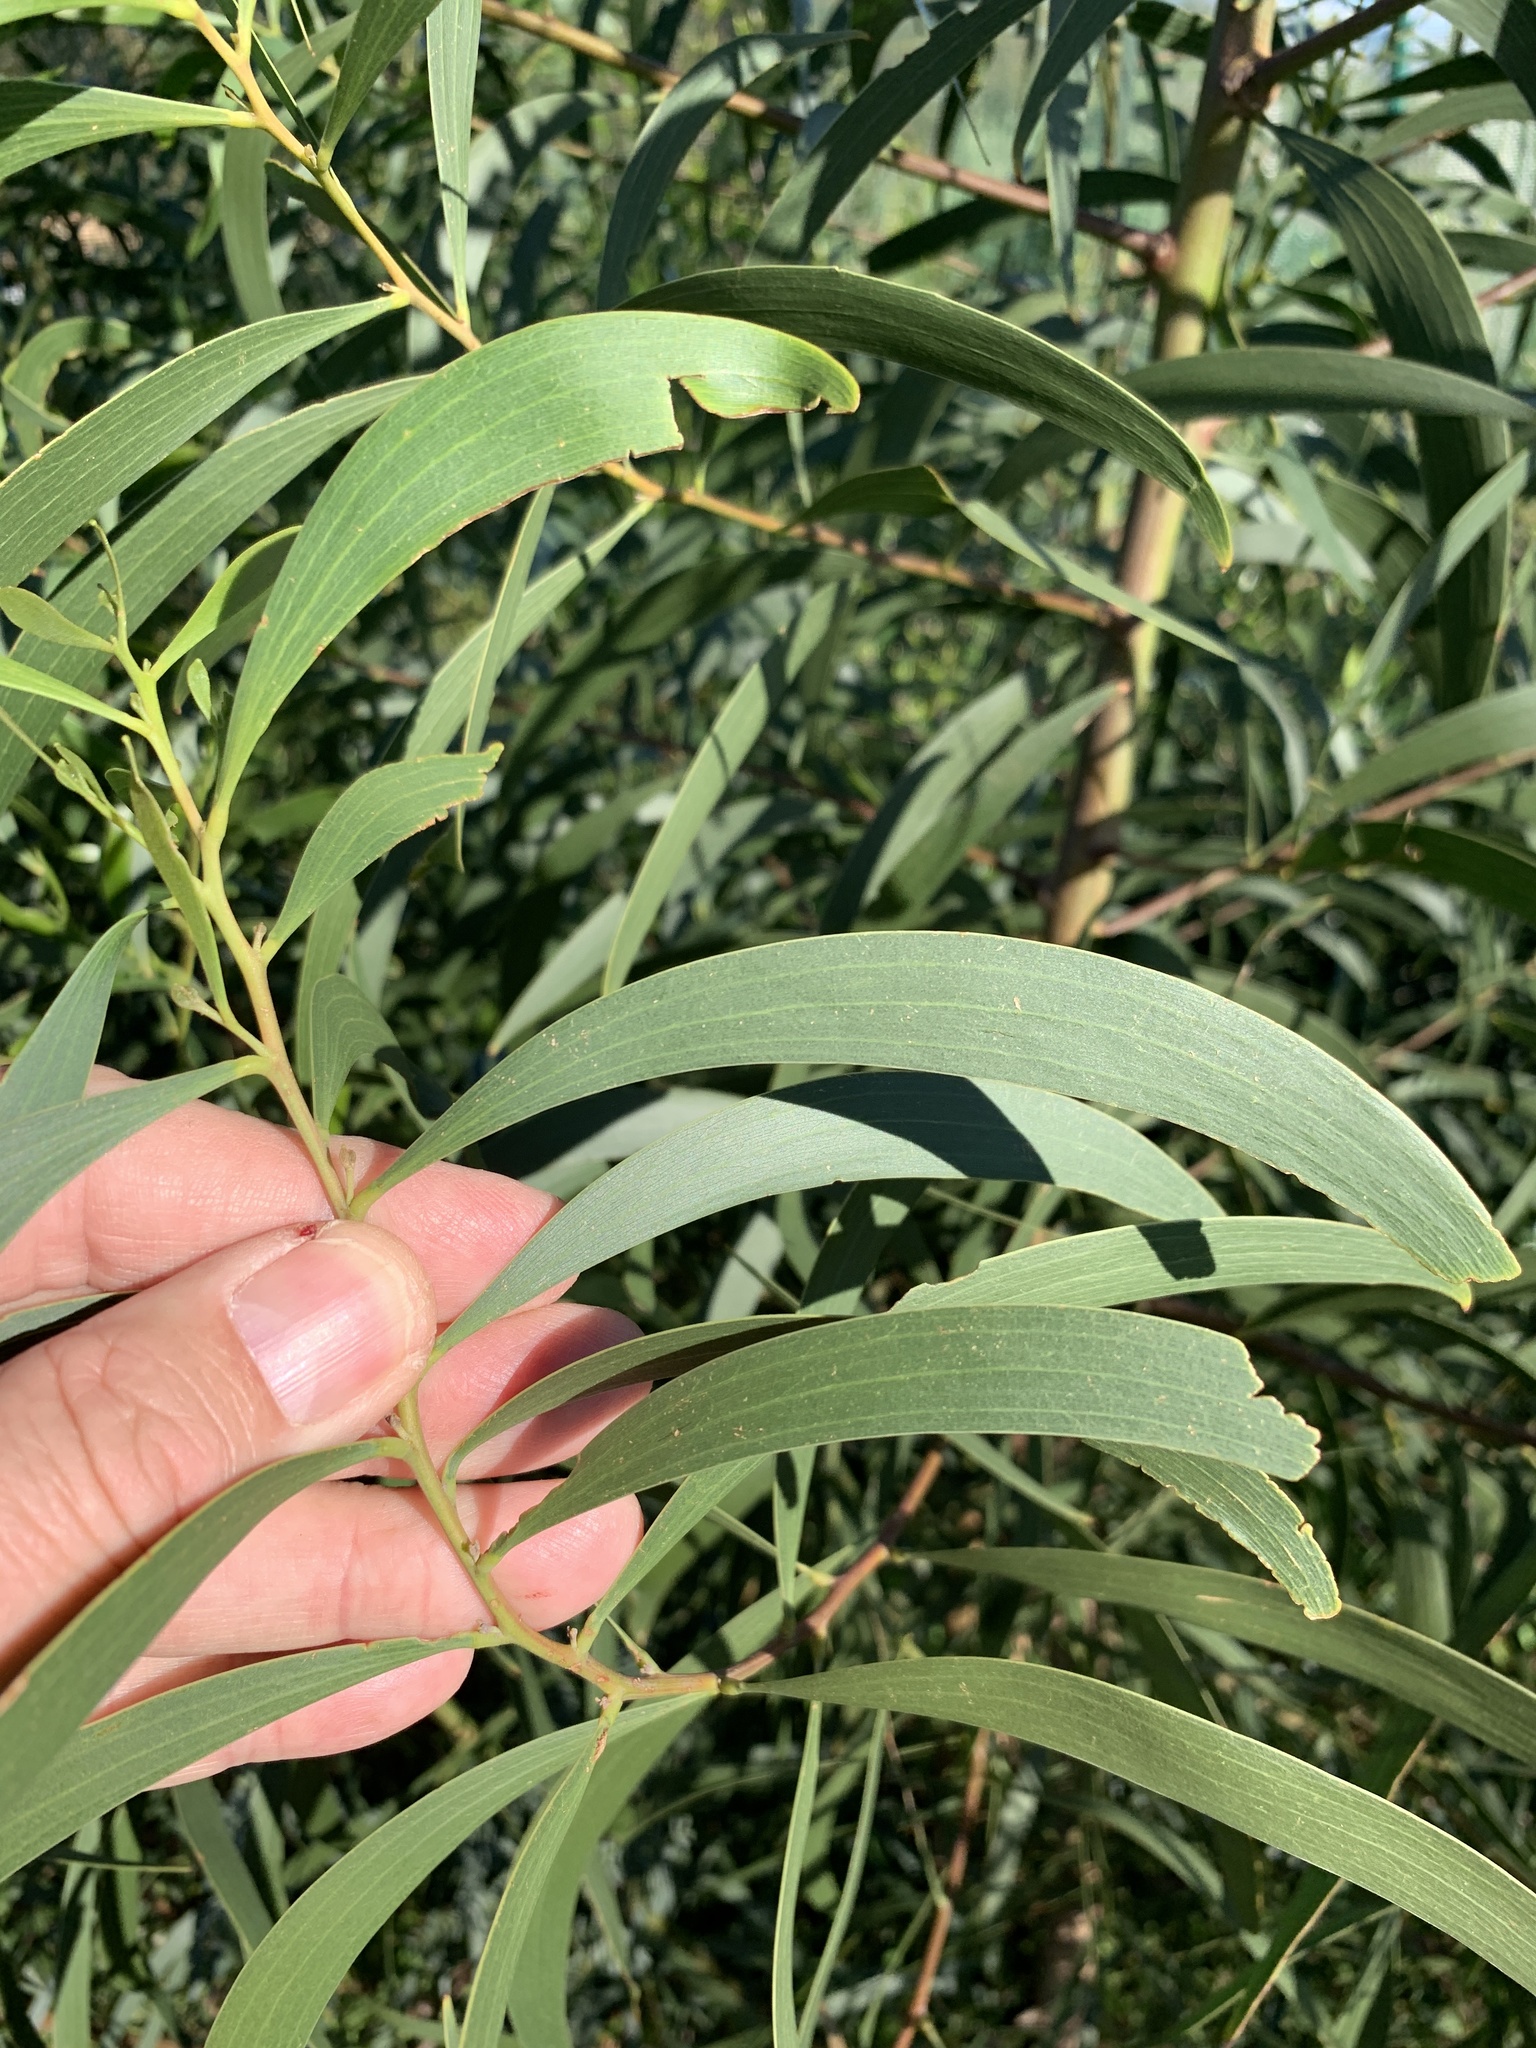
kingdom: Plantae
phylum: Tracheophyta
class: Magnoliopsida
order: Fabales
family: Fabaceae
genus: Acacia
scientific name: Acacia implexa
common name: Black wattle
